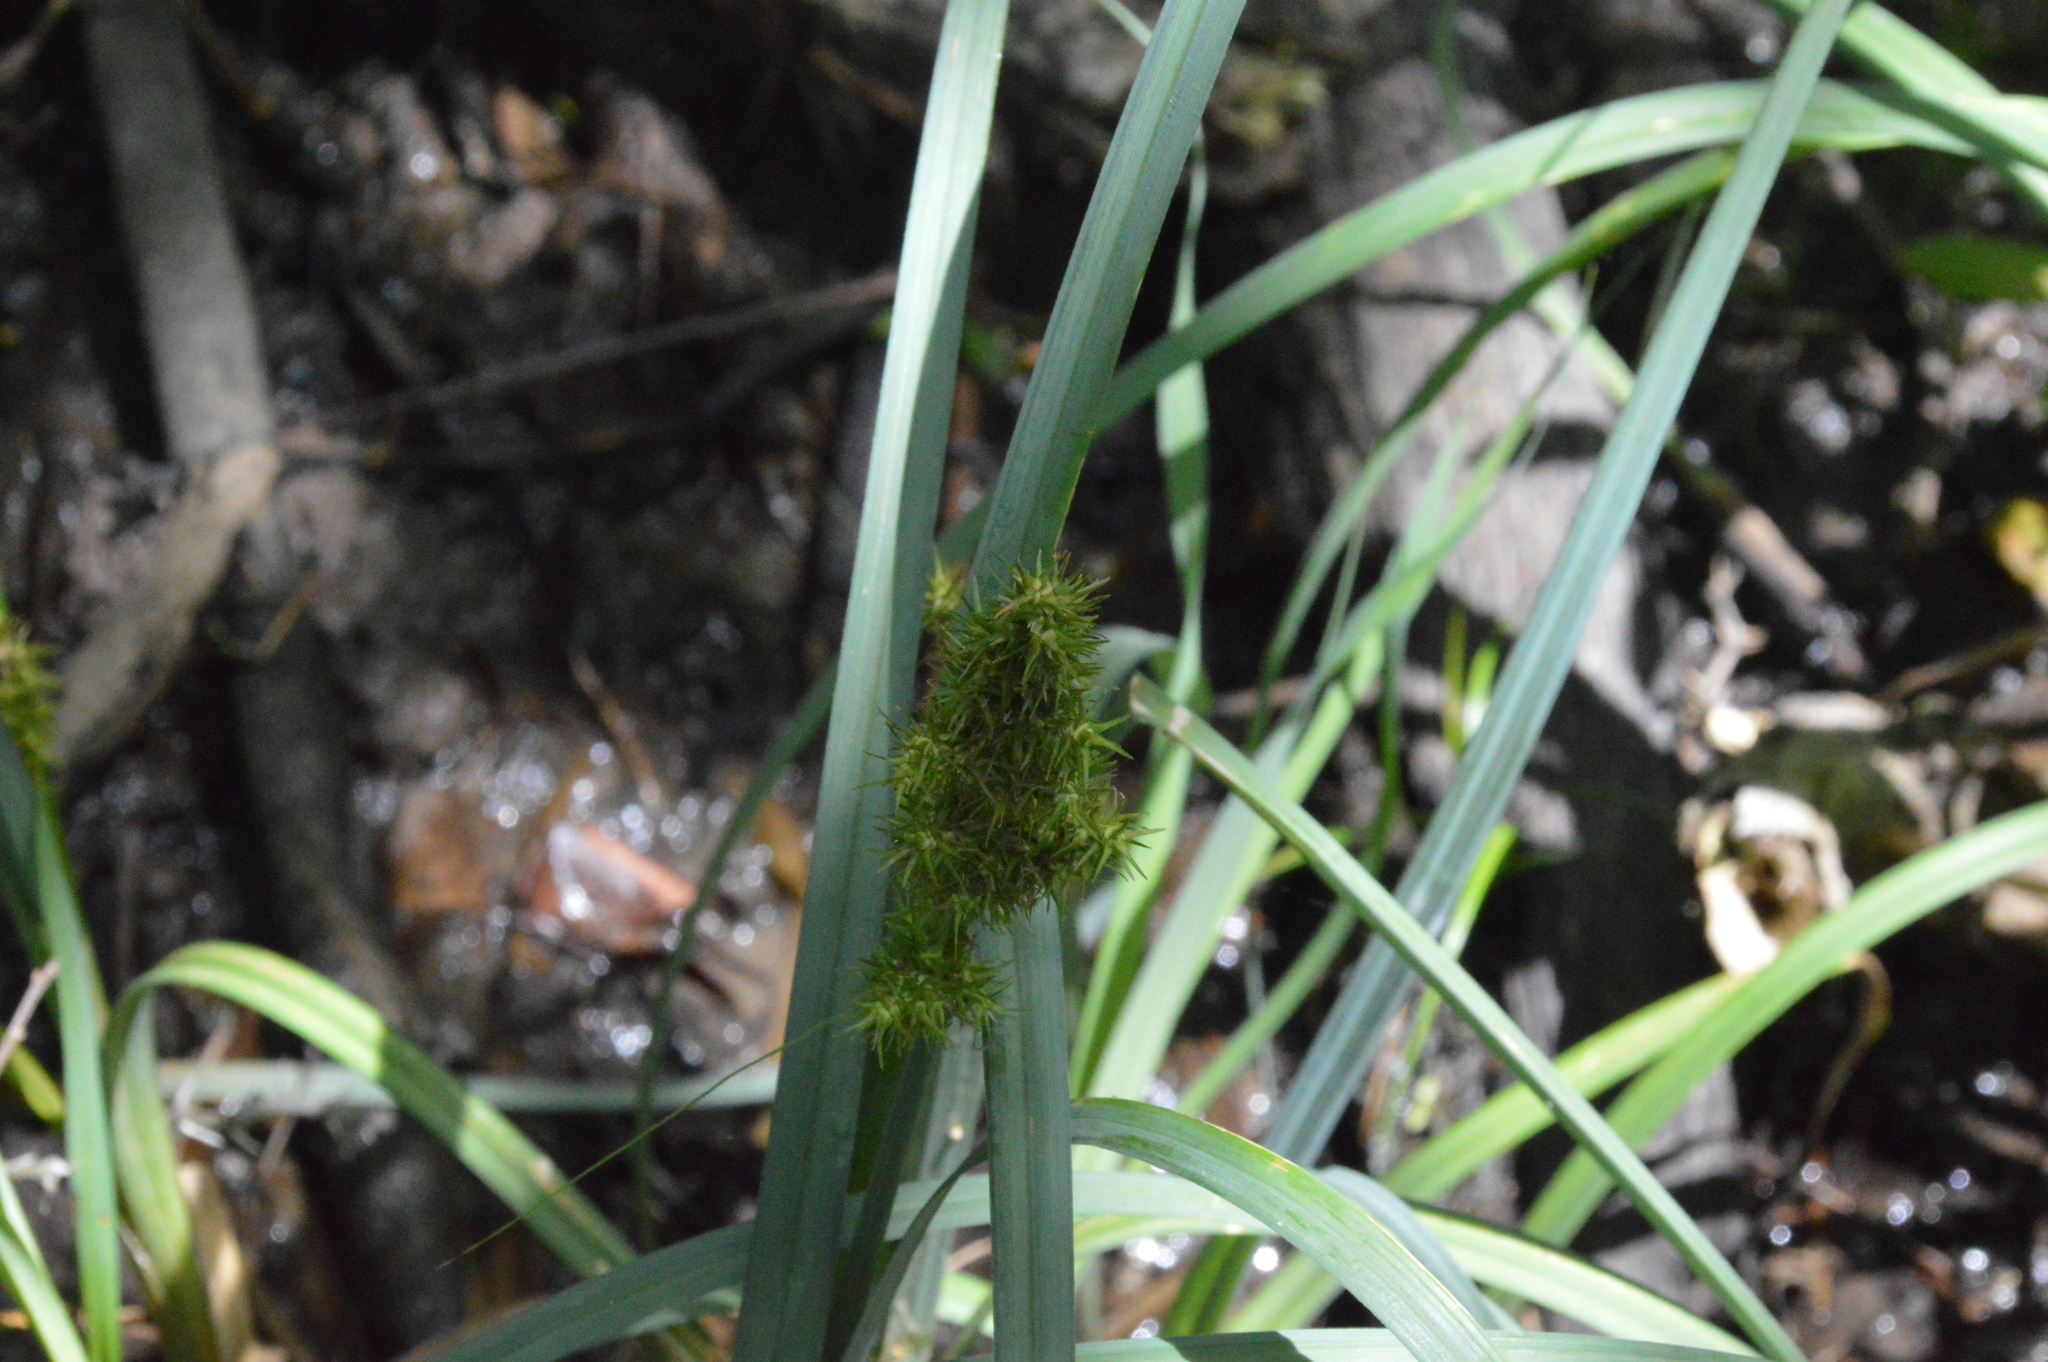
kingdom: Plantae
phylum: Tracheophyta
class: Liliopsida
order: Poales
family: Cyperaceae
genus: Carex
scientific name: Carex crus-corvi
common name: Crow-spur sedge
